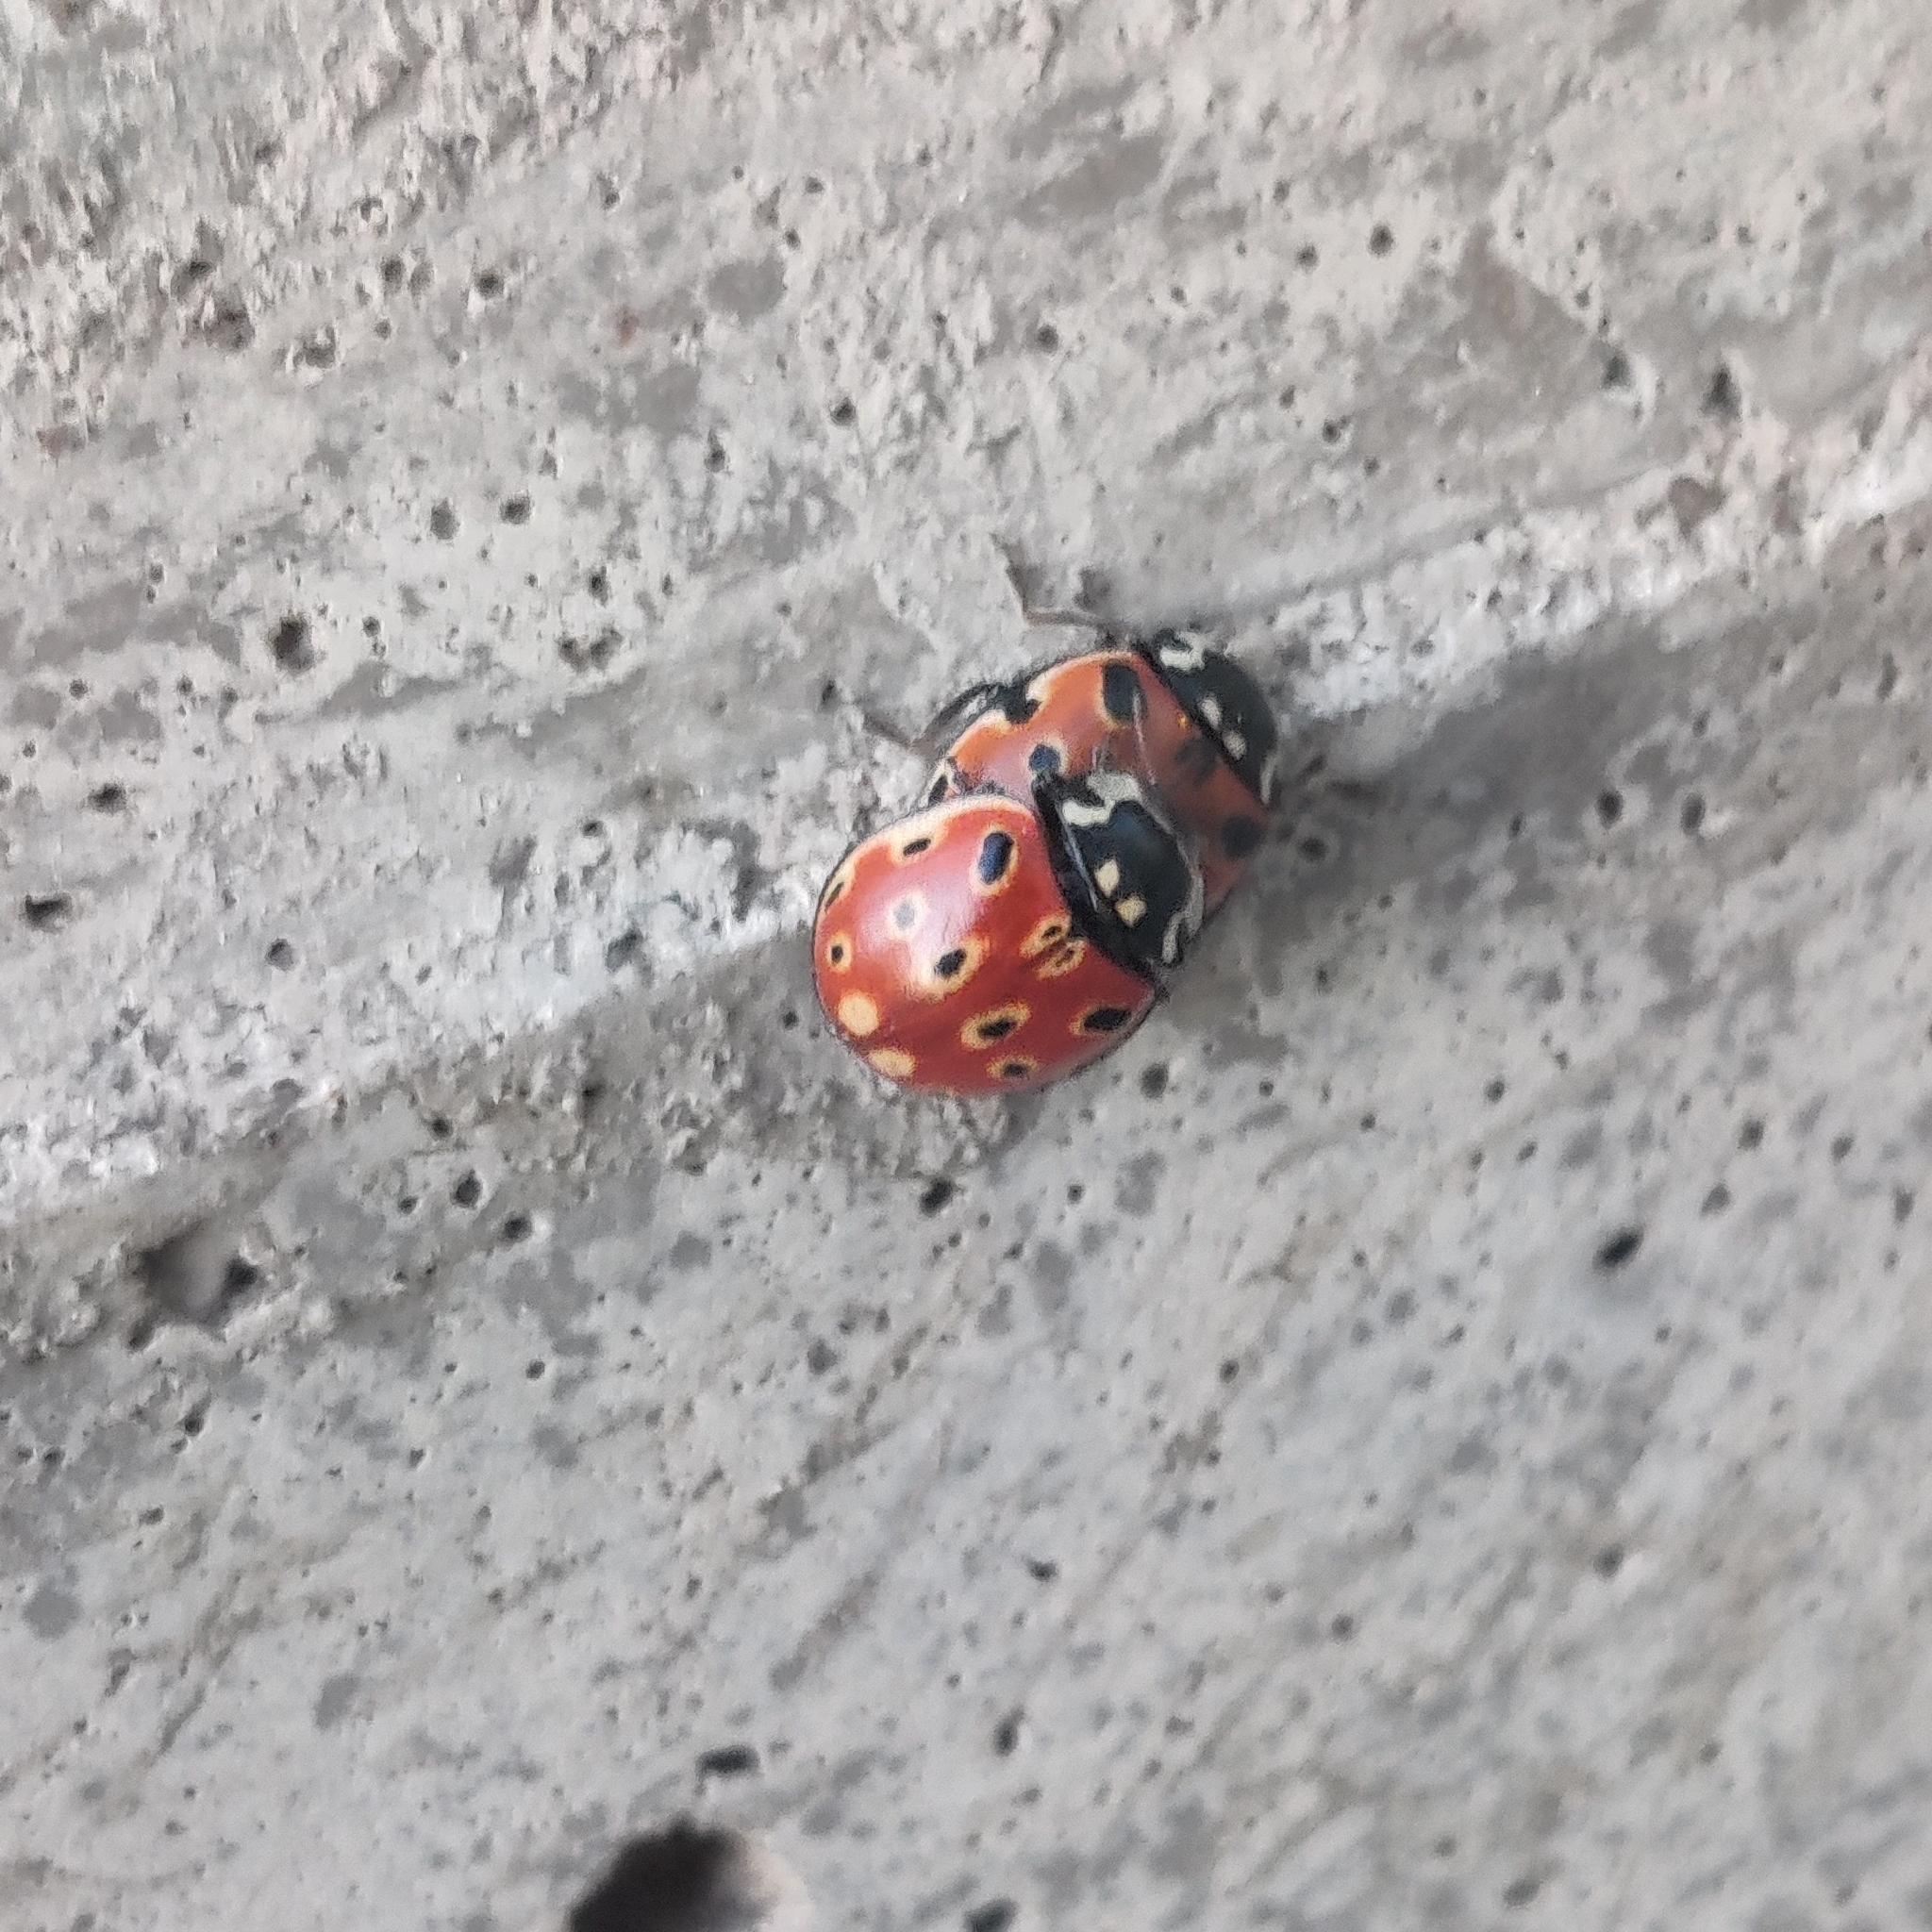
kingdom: Animalia
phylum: Arthropoda
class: Insecta
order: Coleoptera
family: Coccinellidae
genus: Anatis
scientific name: Anatis ocellata
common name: Eyed ladybird
